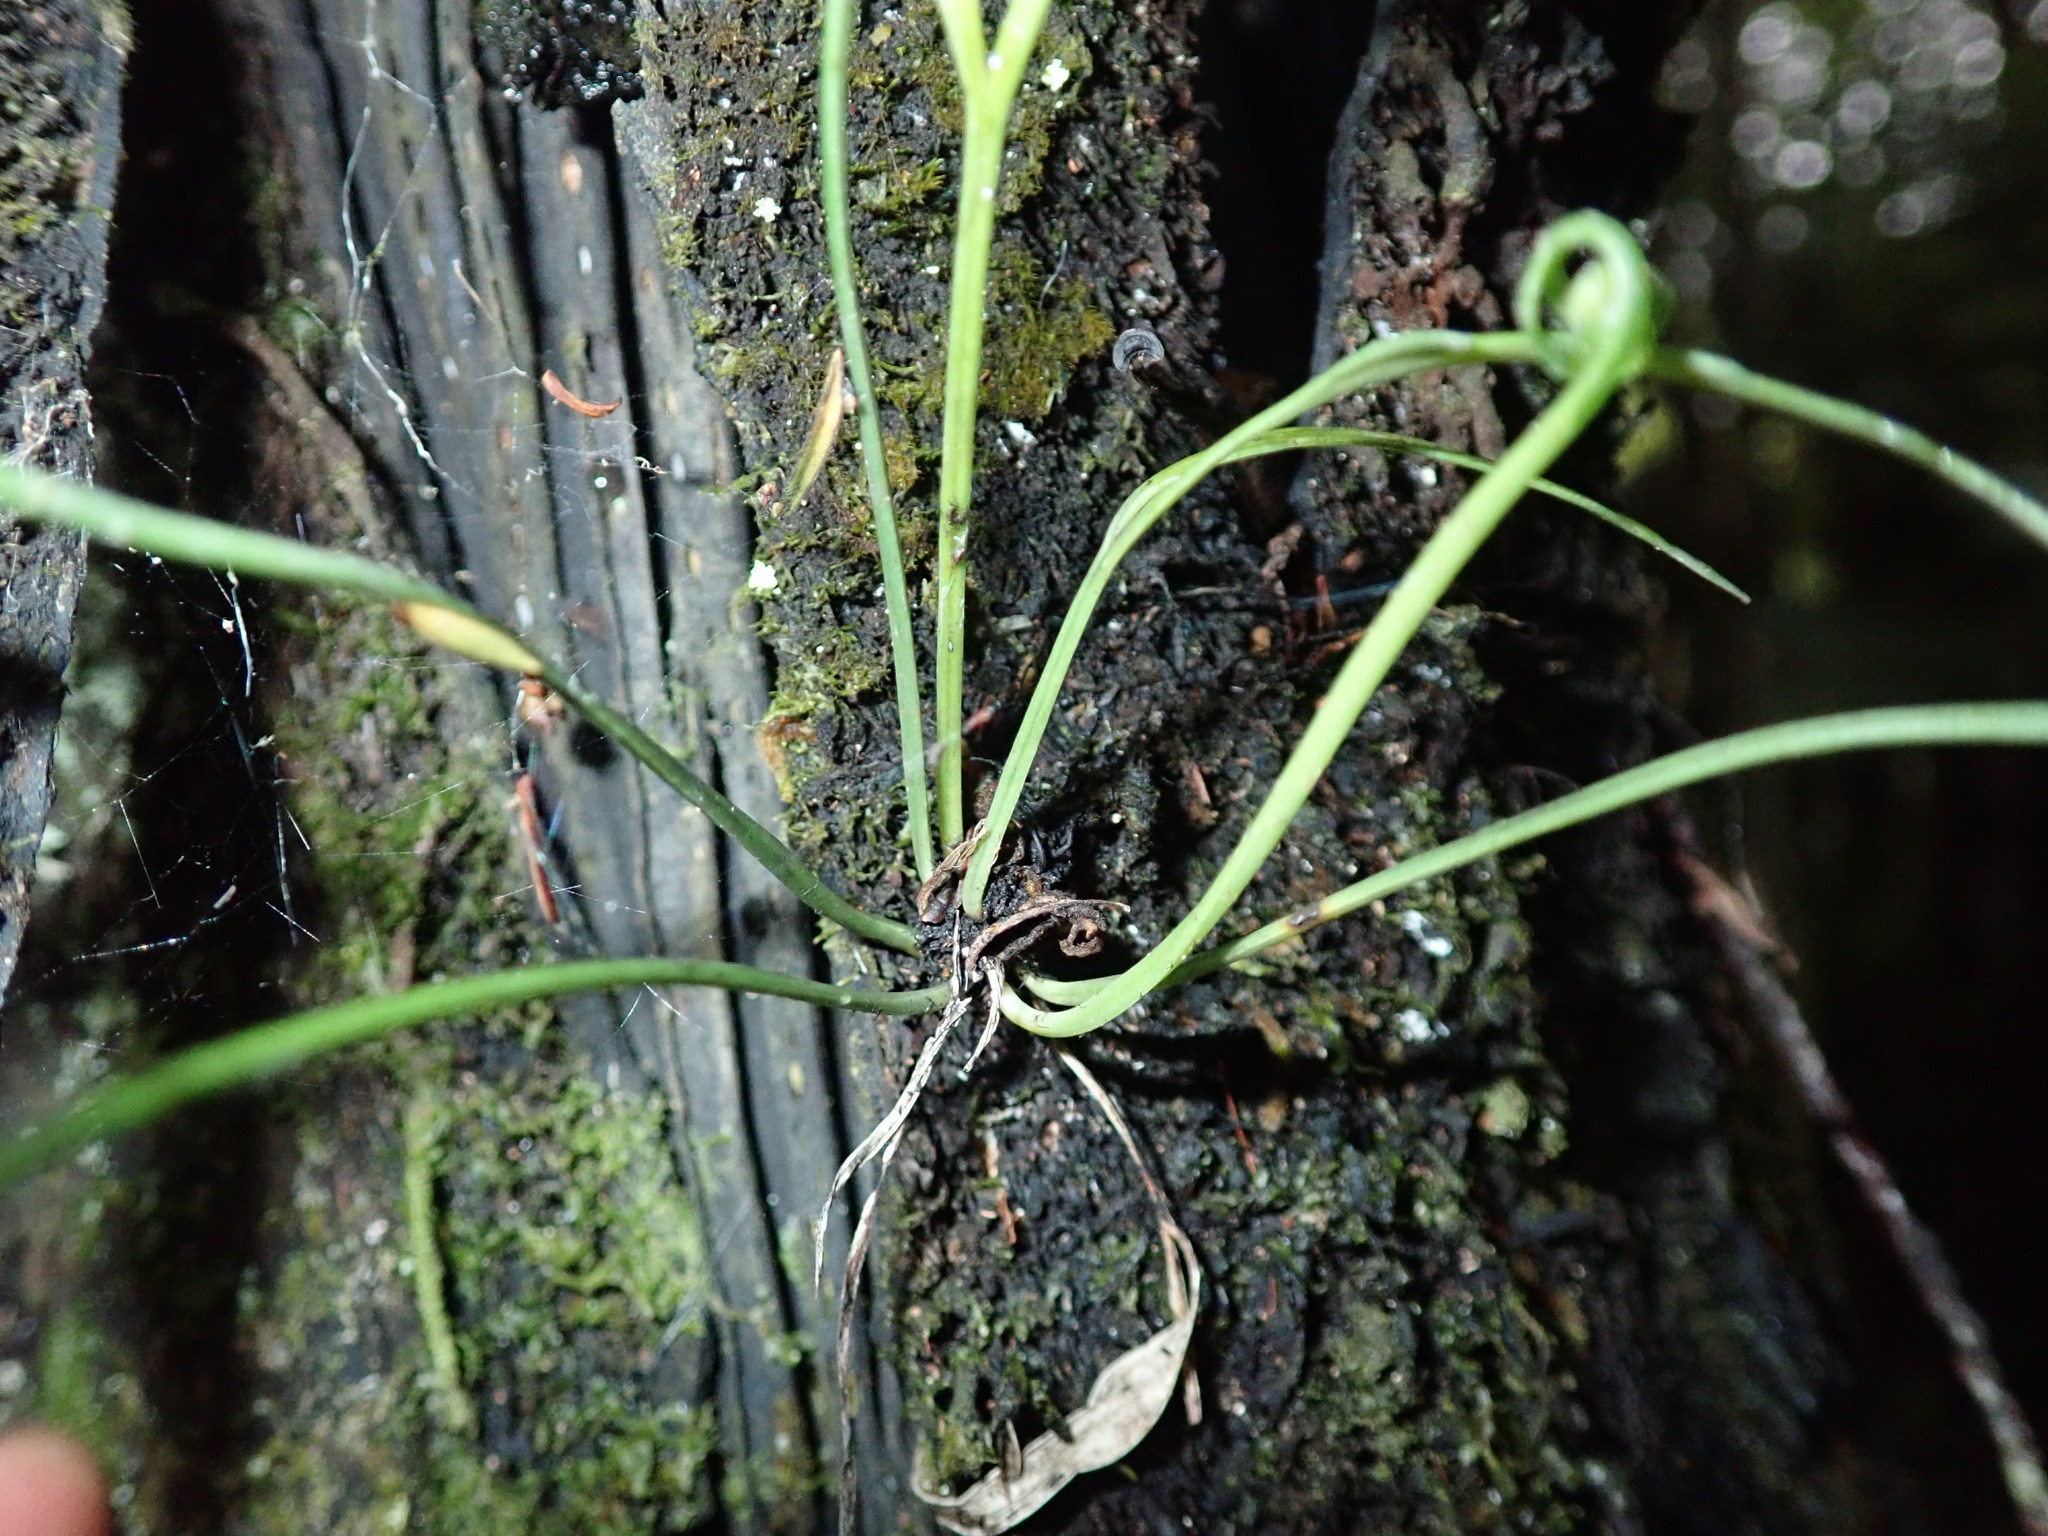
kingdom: Plantae
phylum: Tracheophyta
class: Polypodiopsida
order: Polypodiales
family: Aspleniaceae
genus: Asplenium
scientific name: Asplenium flaccidum
